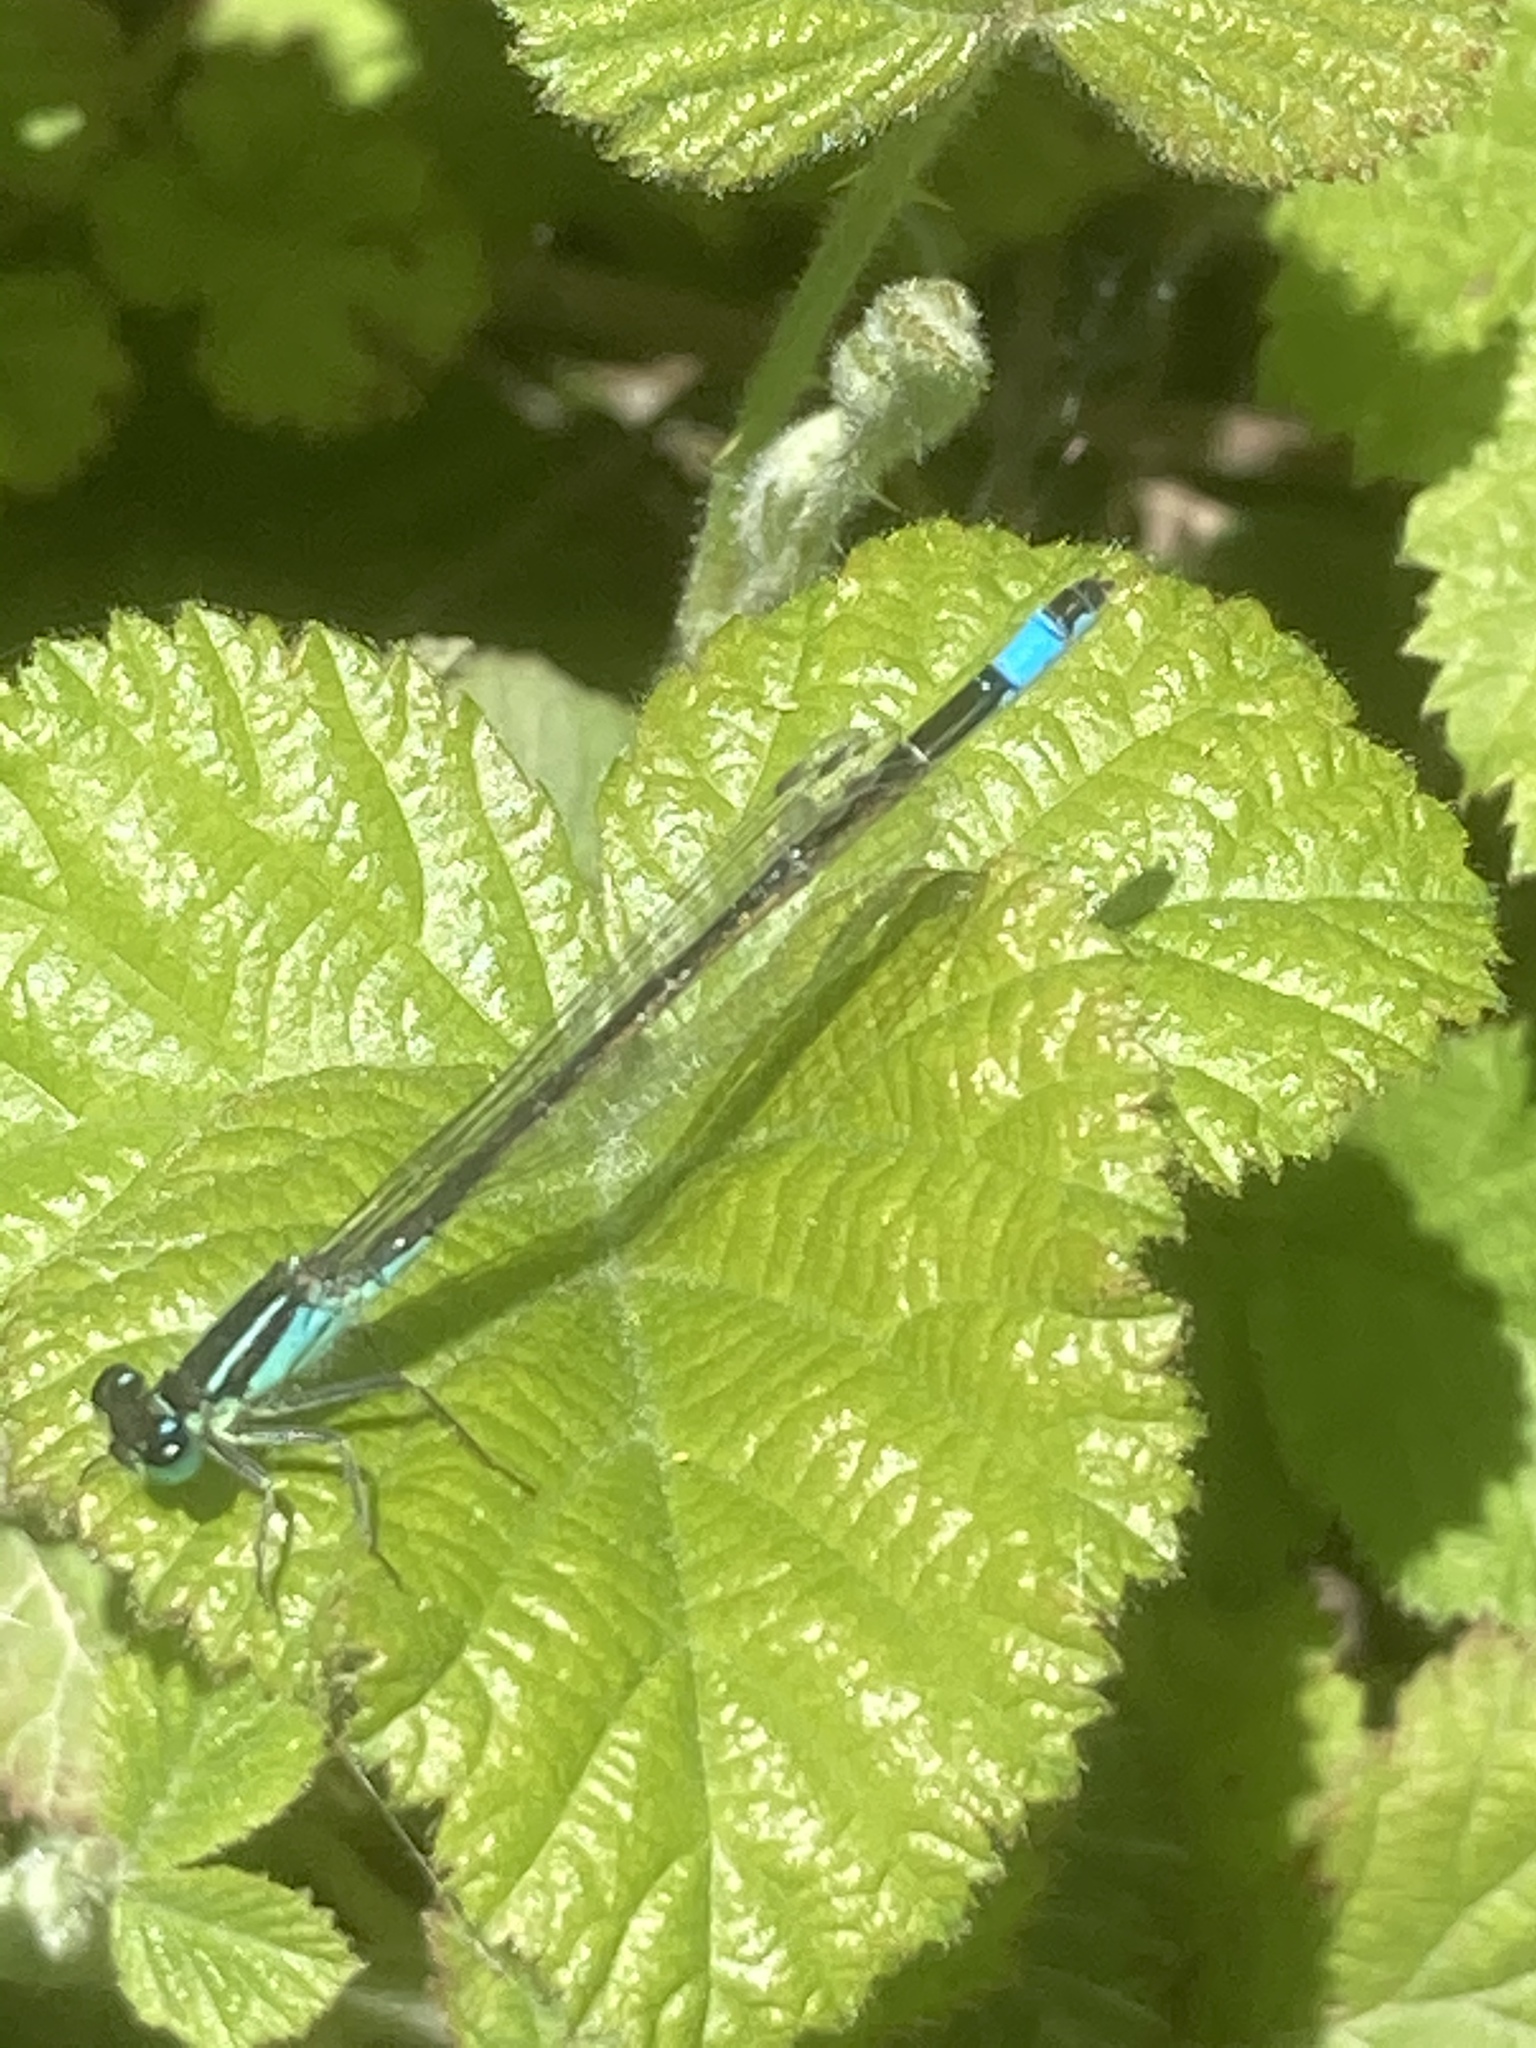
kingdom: Animalia
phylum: Arthropoda
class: Insecta
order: Odonata
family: Coenagrionidae
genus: Ischnura
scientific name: Ischnura elegans
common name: Blue-tailed damselfly
